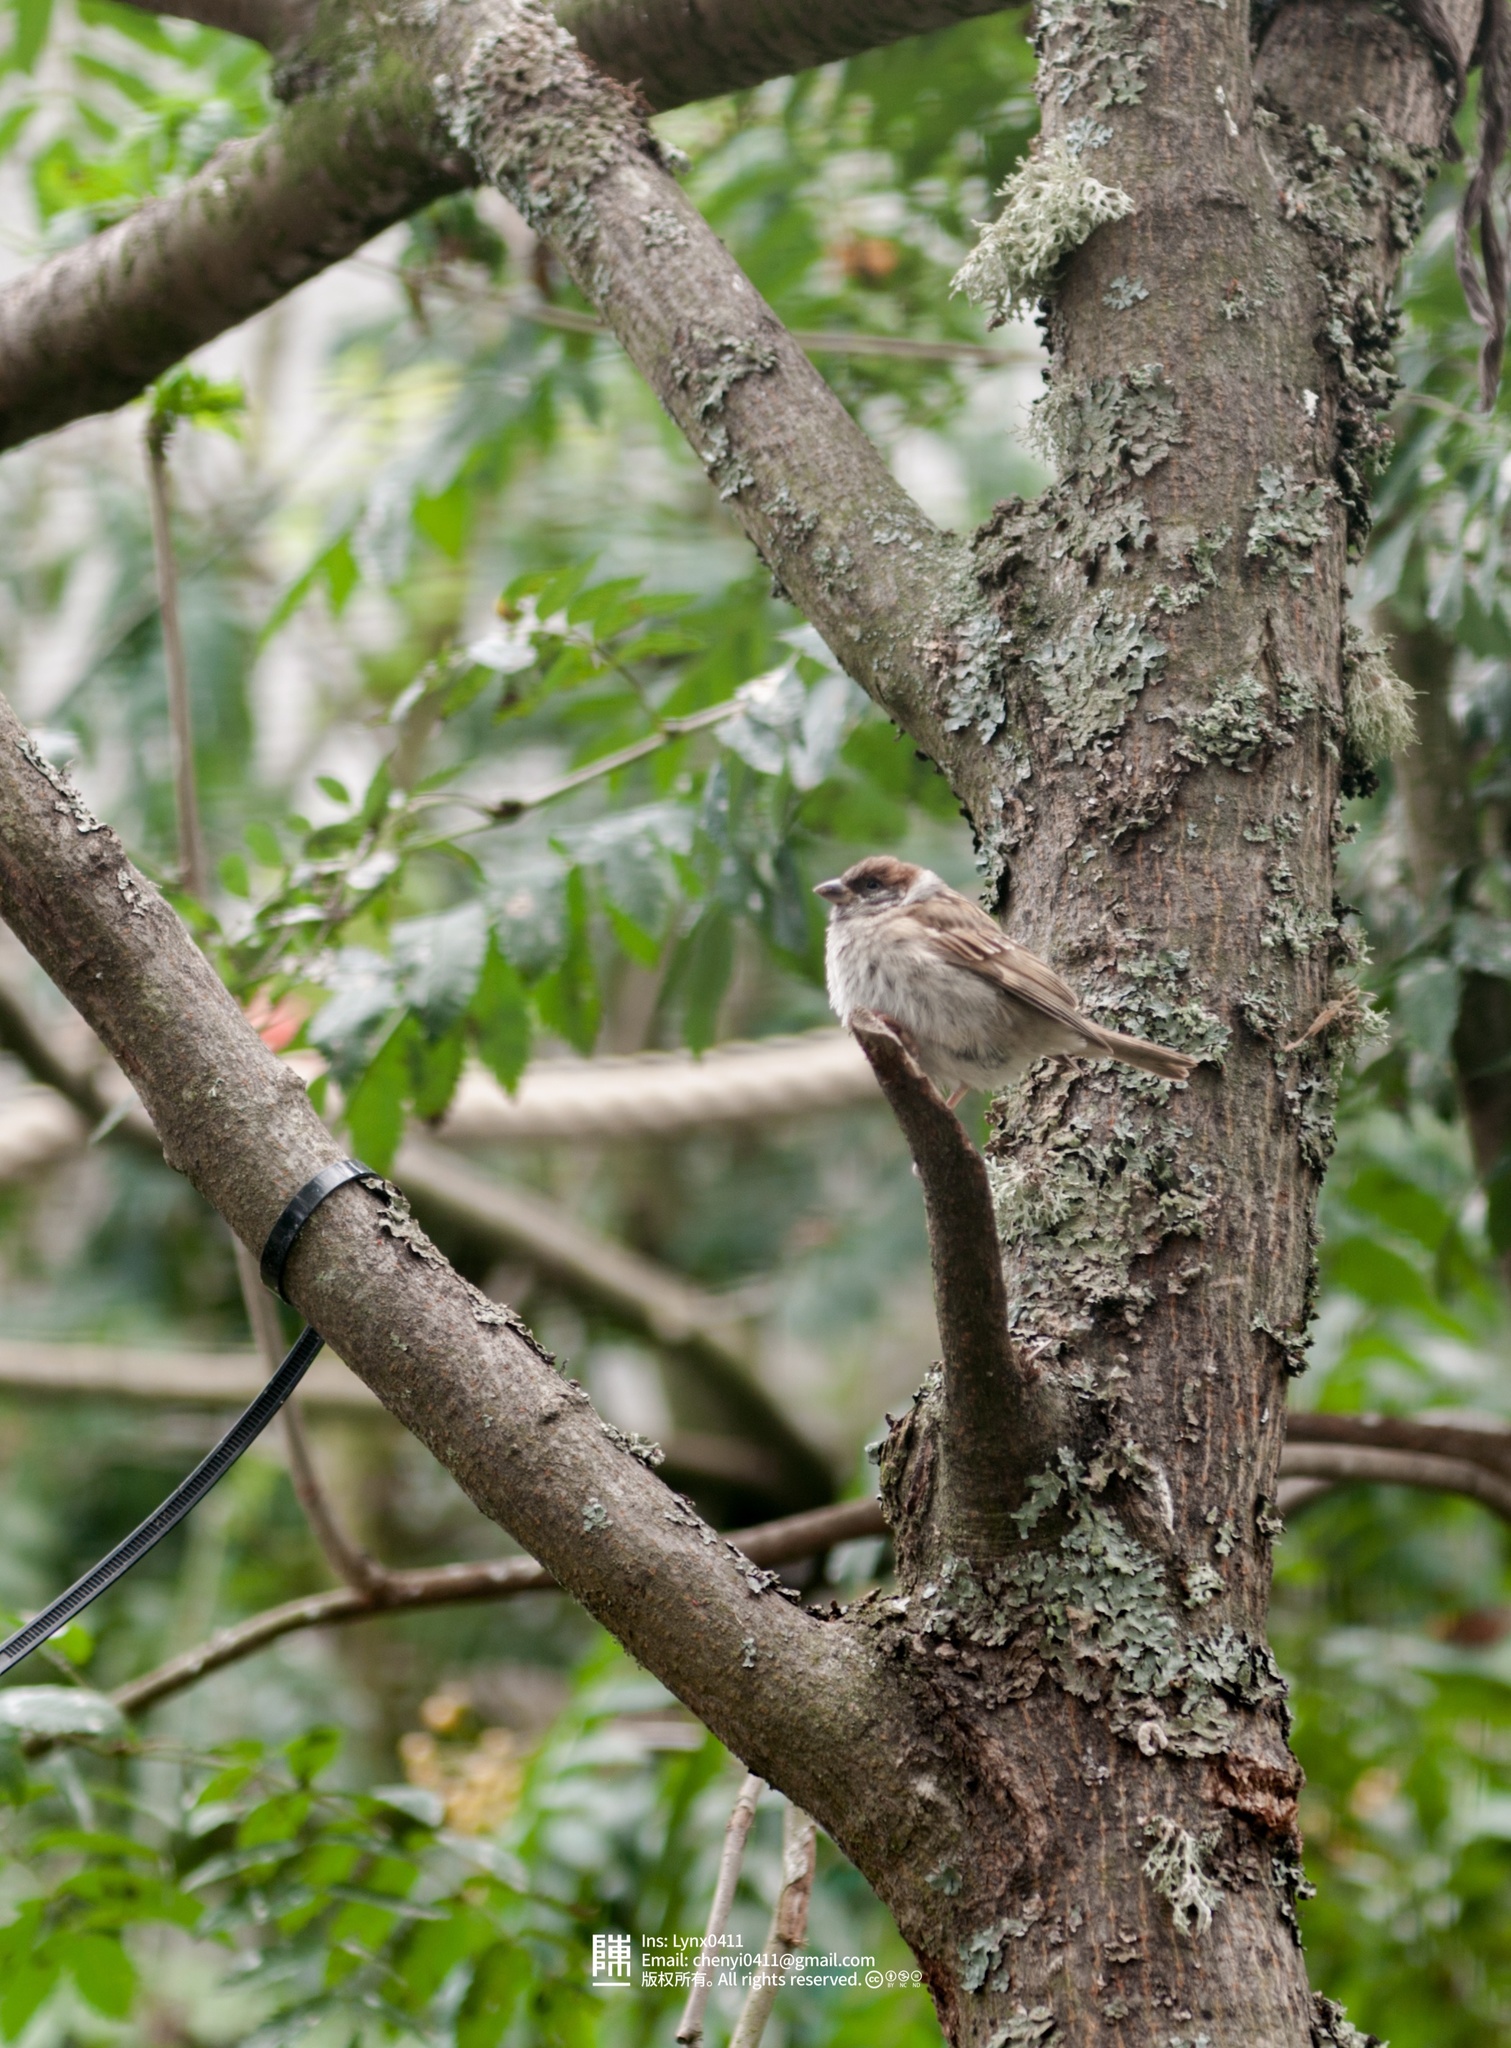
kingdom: Animalia
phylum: Chordata
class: Aves
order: Passeriformes
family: Passeridae
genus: Passer
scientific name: Passer montanus
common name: Eurasian tree sparrow
